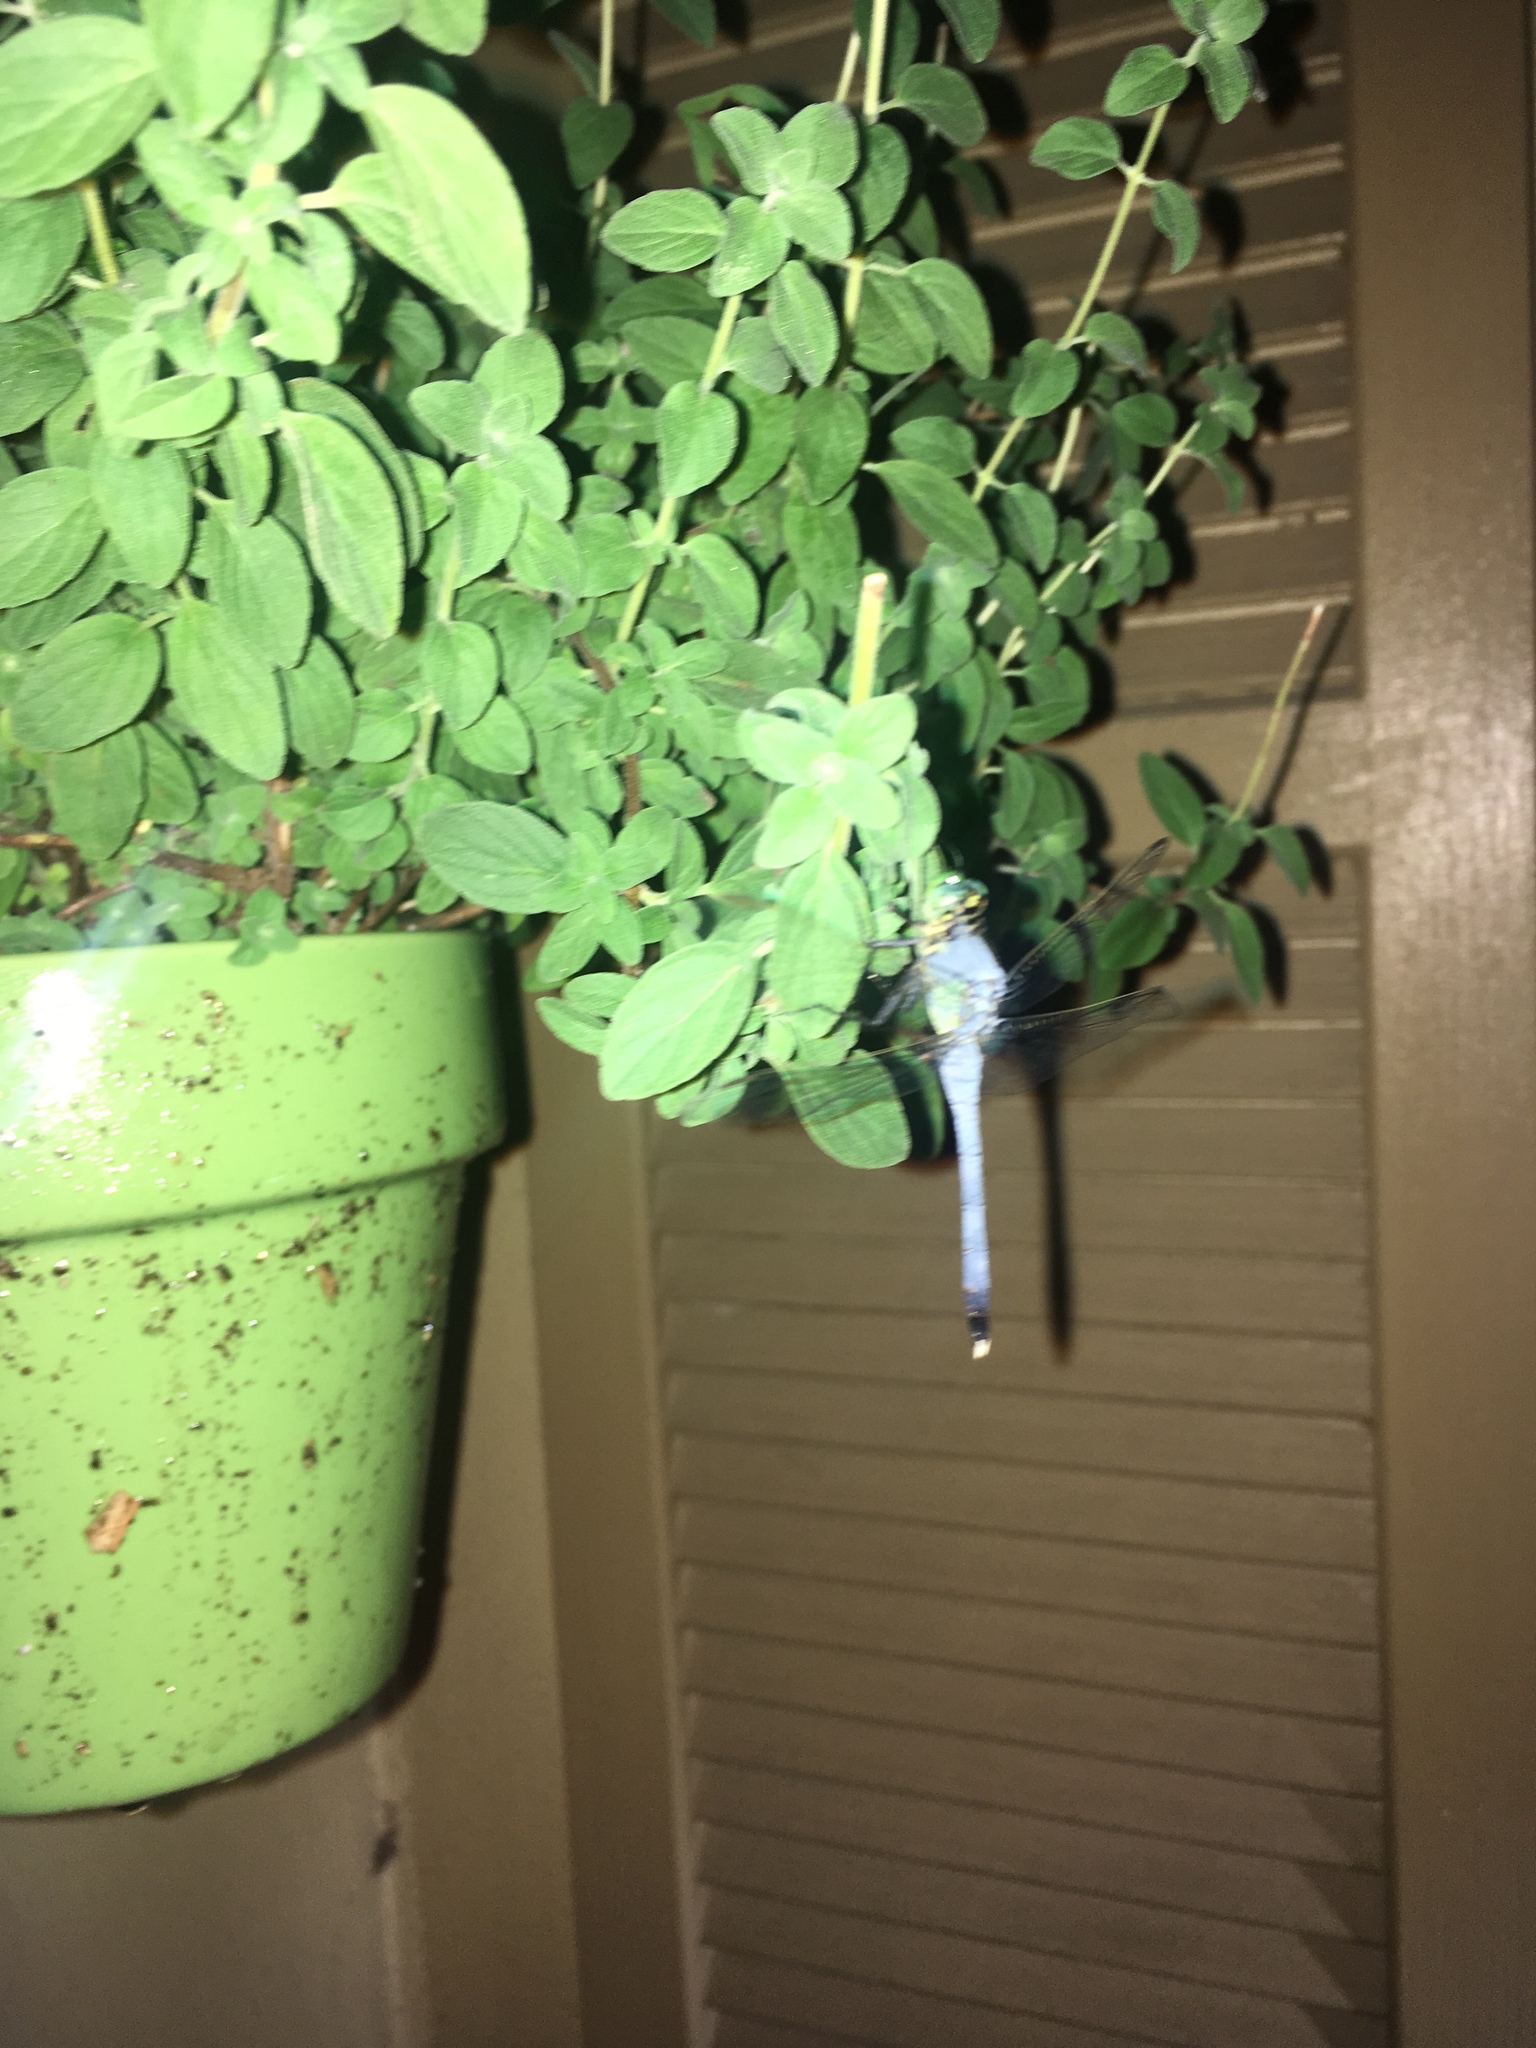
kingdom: Animalia
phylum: Arthropoda
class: Insecta
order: Odonata
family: Libellulidae
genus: Erythemis
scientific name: Erythemis simplicicollis
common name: Eastern pondhawk
